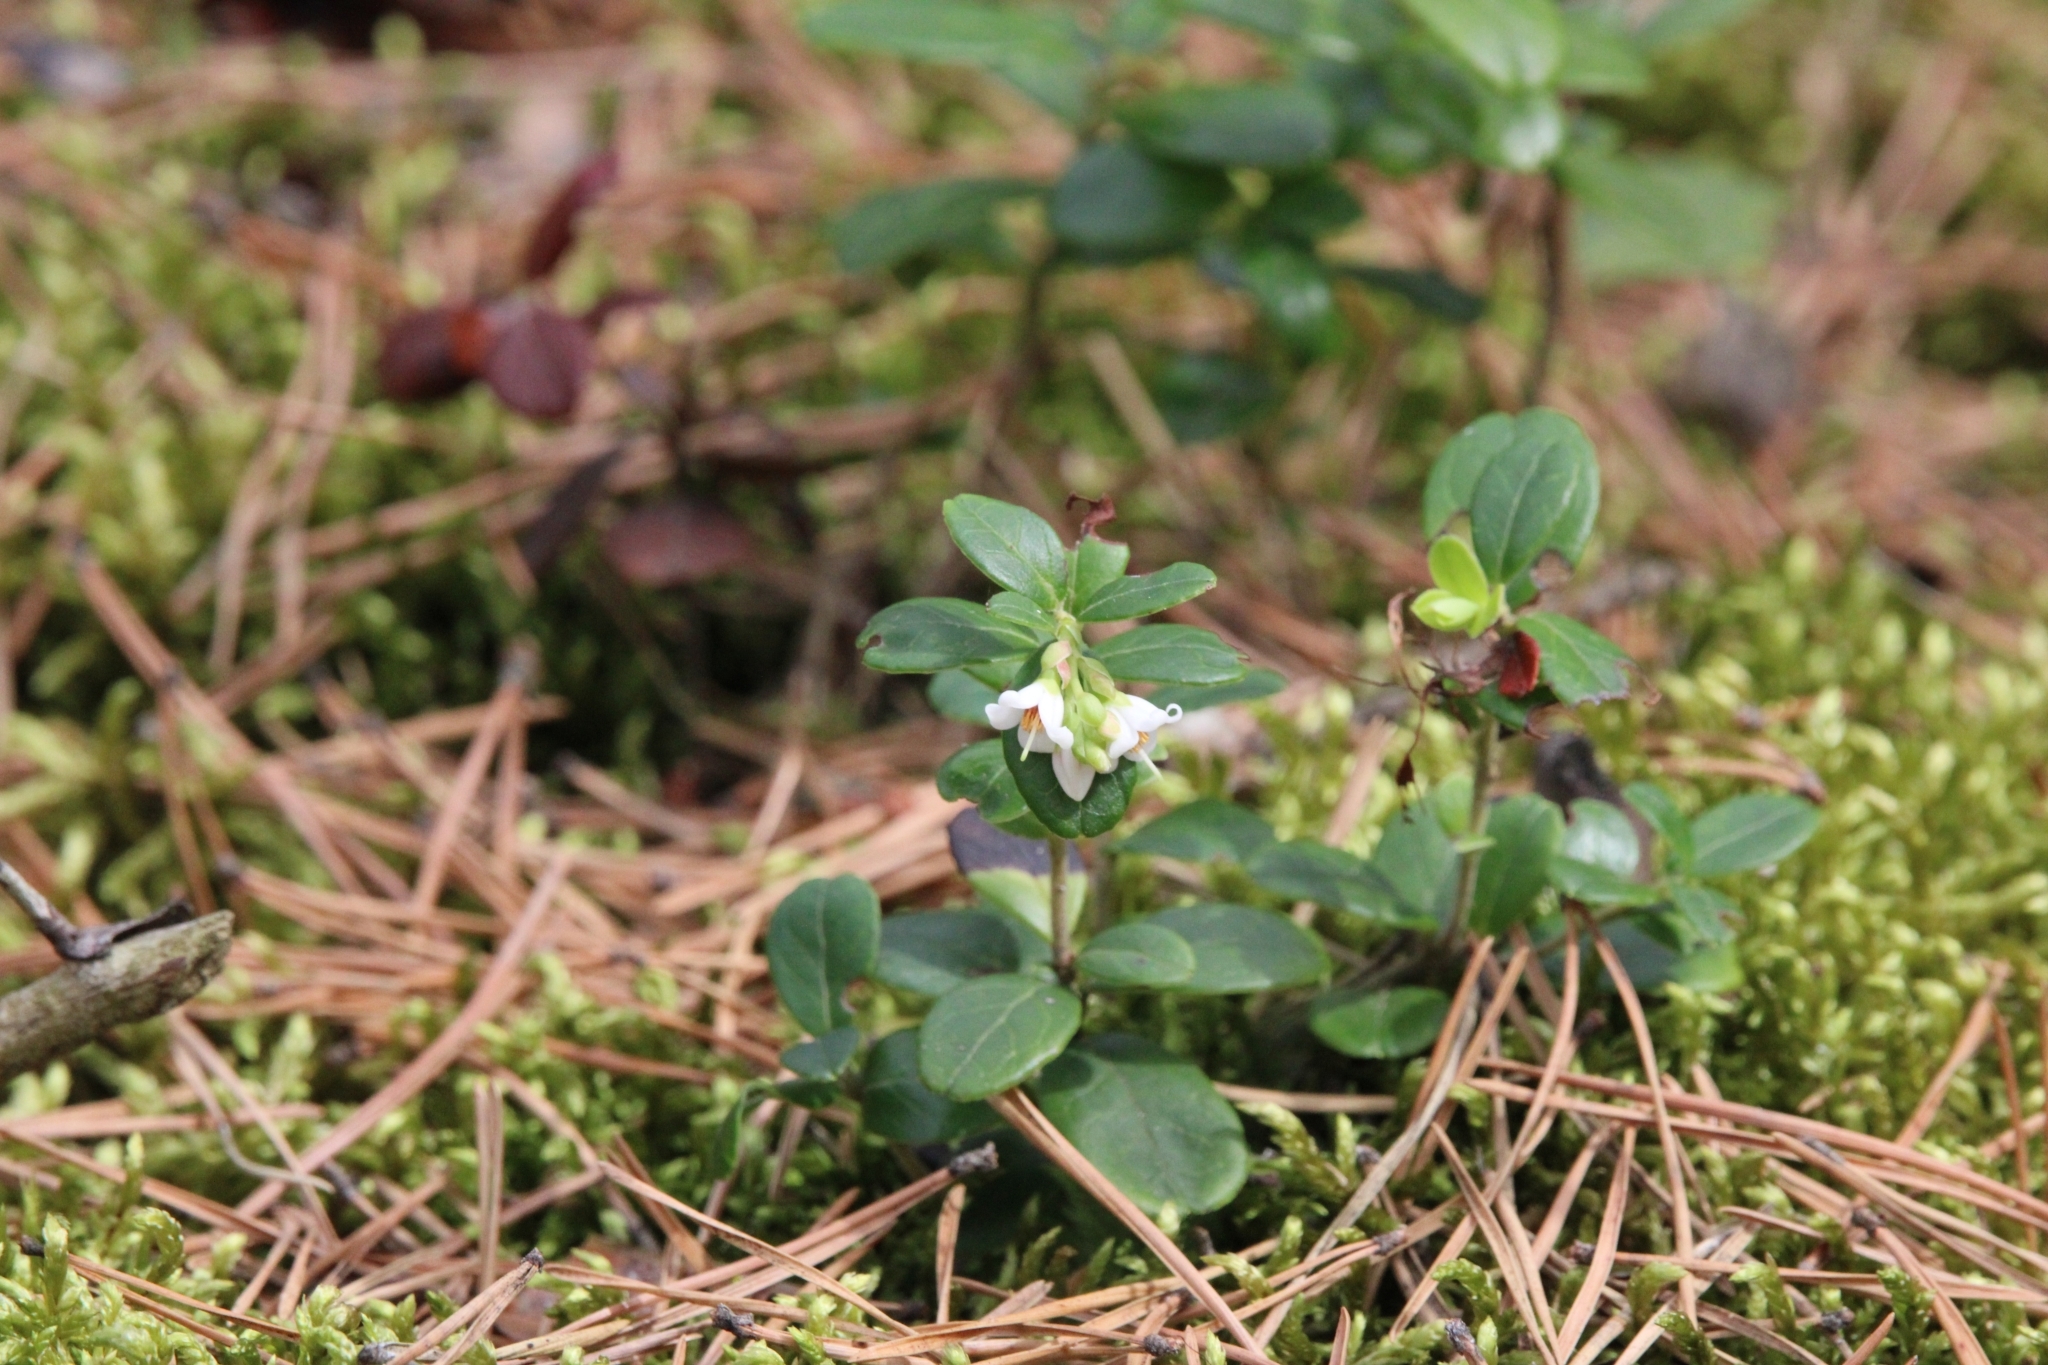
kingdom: Plantae
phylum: Tracheophyta
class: Magnoliopsida
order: Ericales
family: Ericaceae
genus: Vaccinium
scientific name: Vaccinium vitis-idaea
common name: Cowberry
